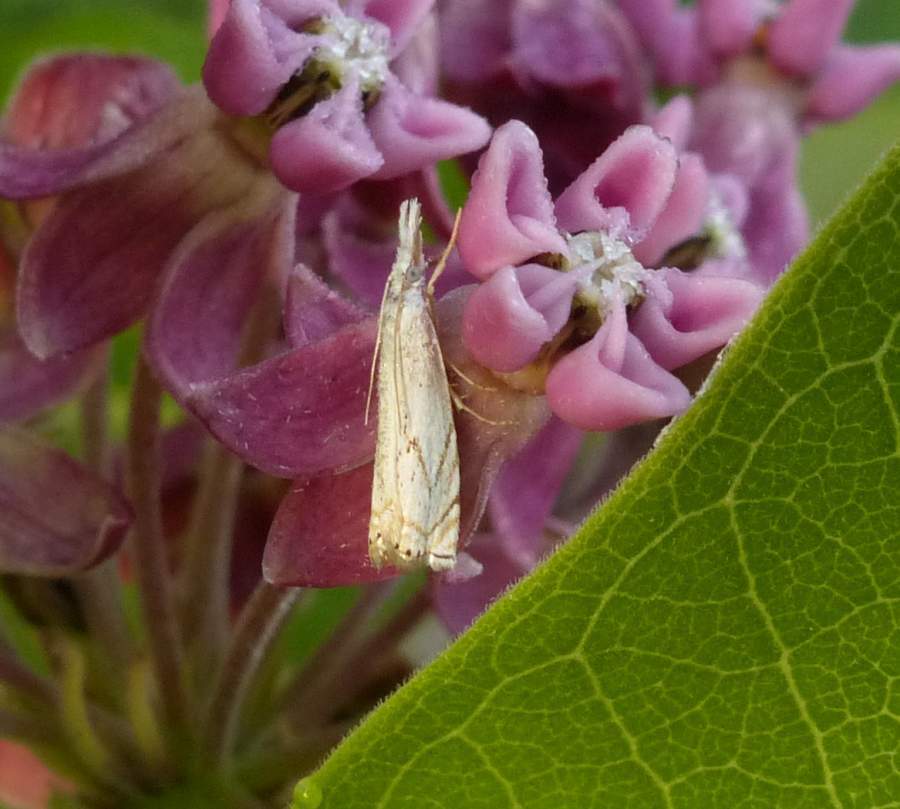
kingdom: Animalia
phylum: Arthropoda
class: Insecta
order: Lepidoptera
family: Crambidae
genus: Crambus
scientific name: Crambus albellus
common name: Small white grass-veneer
